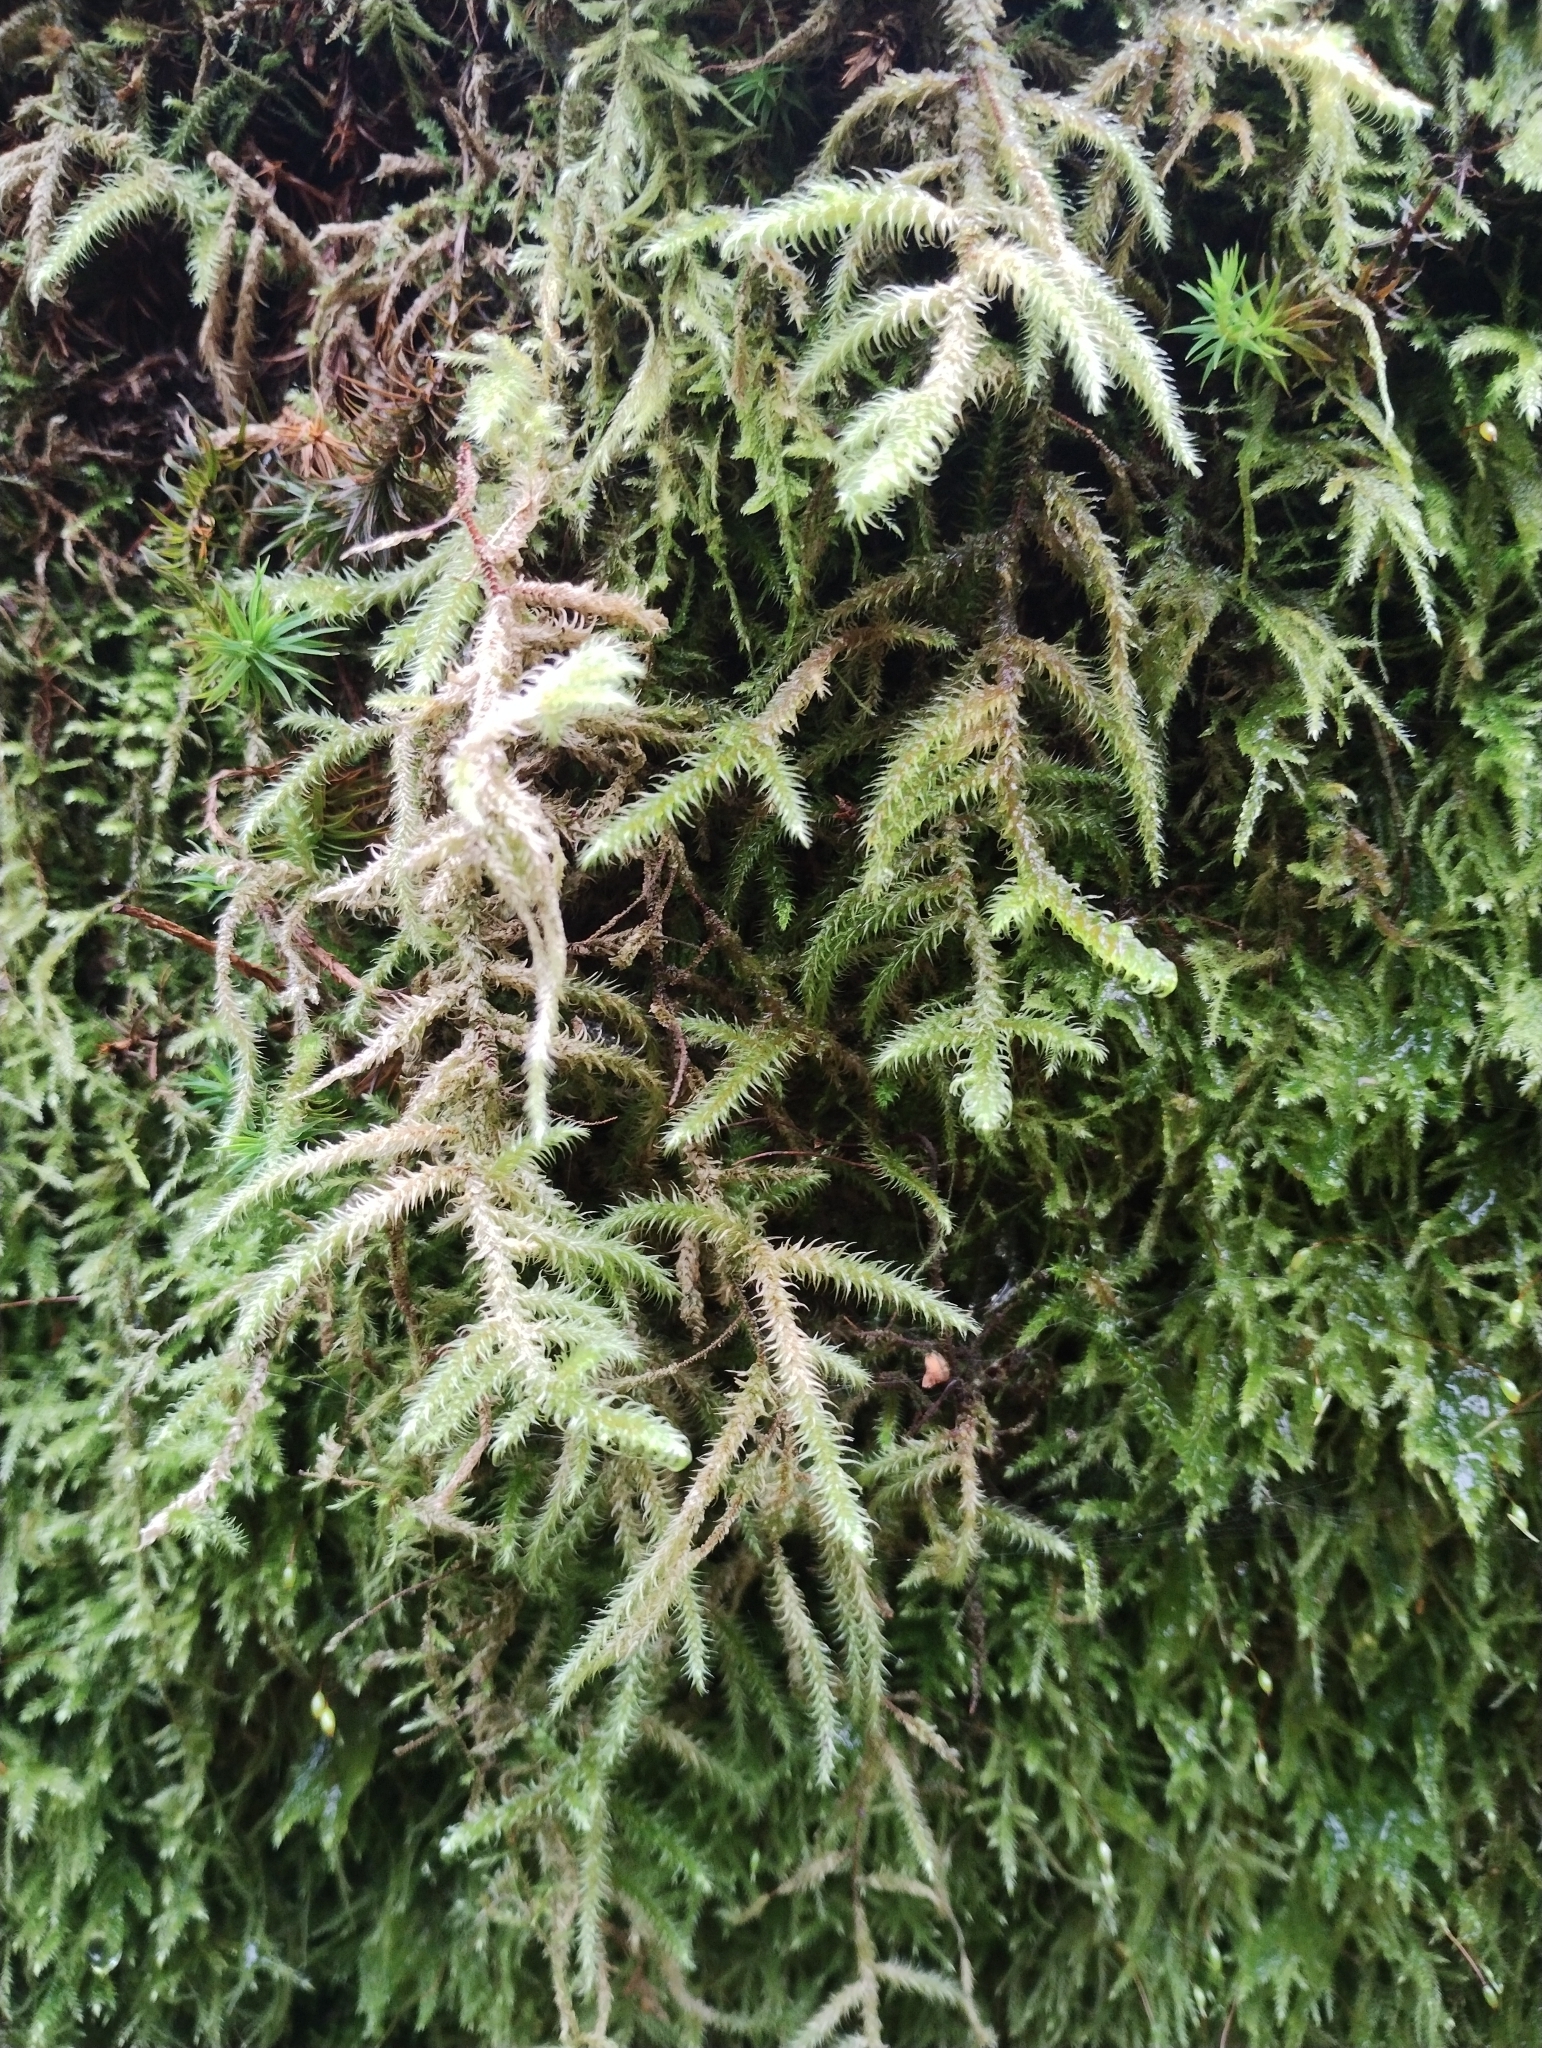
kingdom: Plantae
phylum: Bryophyta
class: Bryopsida
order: Hypnales
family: Hylocomiaceae
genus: Rhytidiadelphus
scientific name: Rhytidiadelphus loreus
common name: Lanky moss
